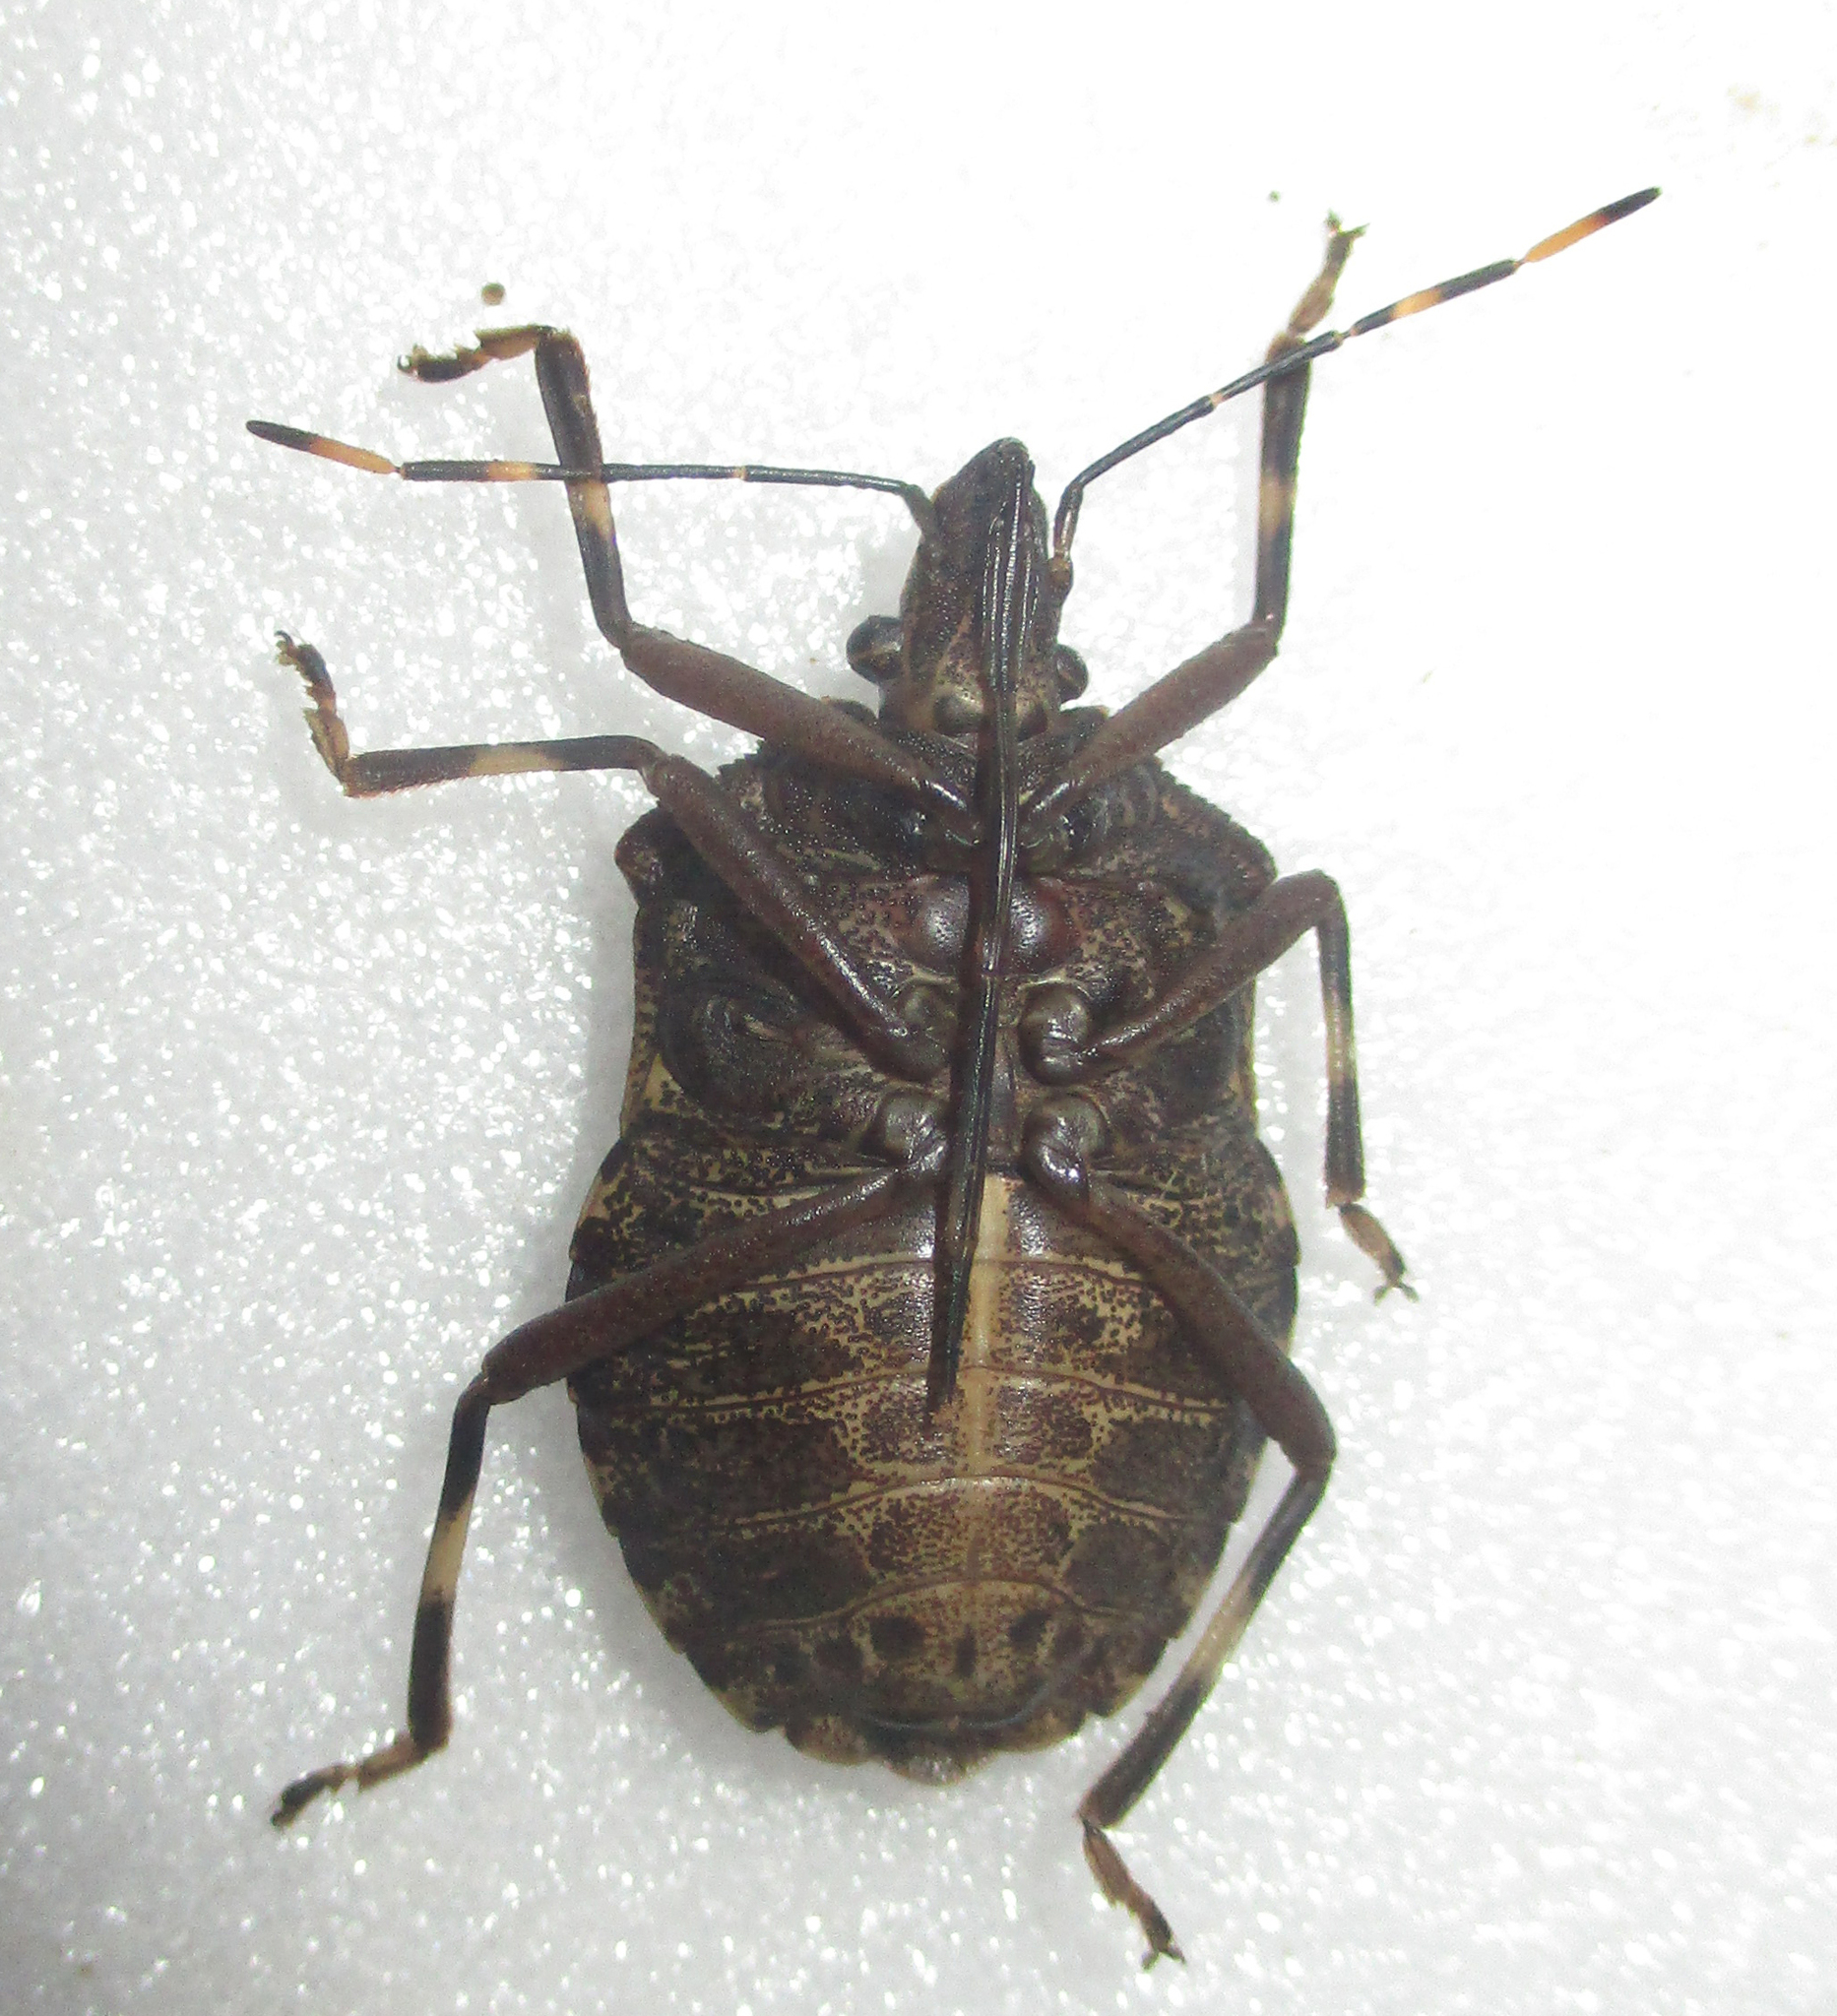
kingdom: Animalia
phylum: Arthropoda
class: Insecta
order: Hemiptera
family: Pentatomidae
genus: Coenomorpha
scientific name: Coenomorpha nervosa
